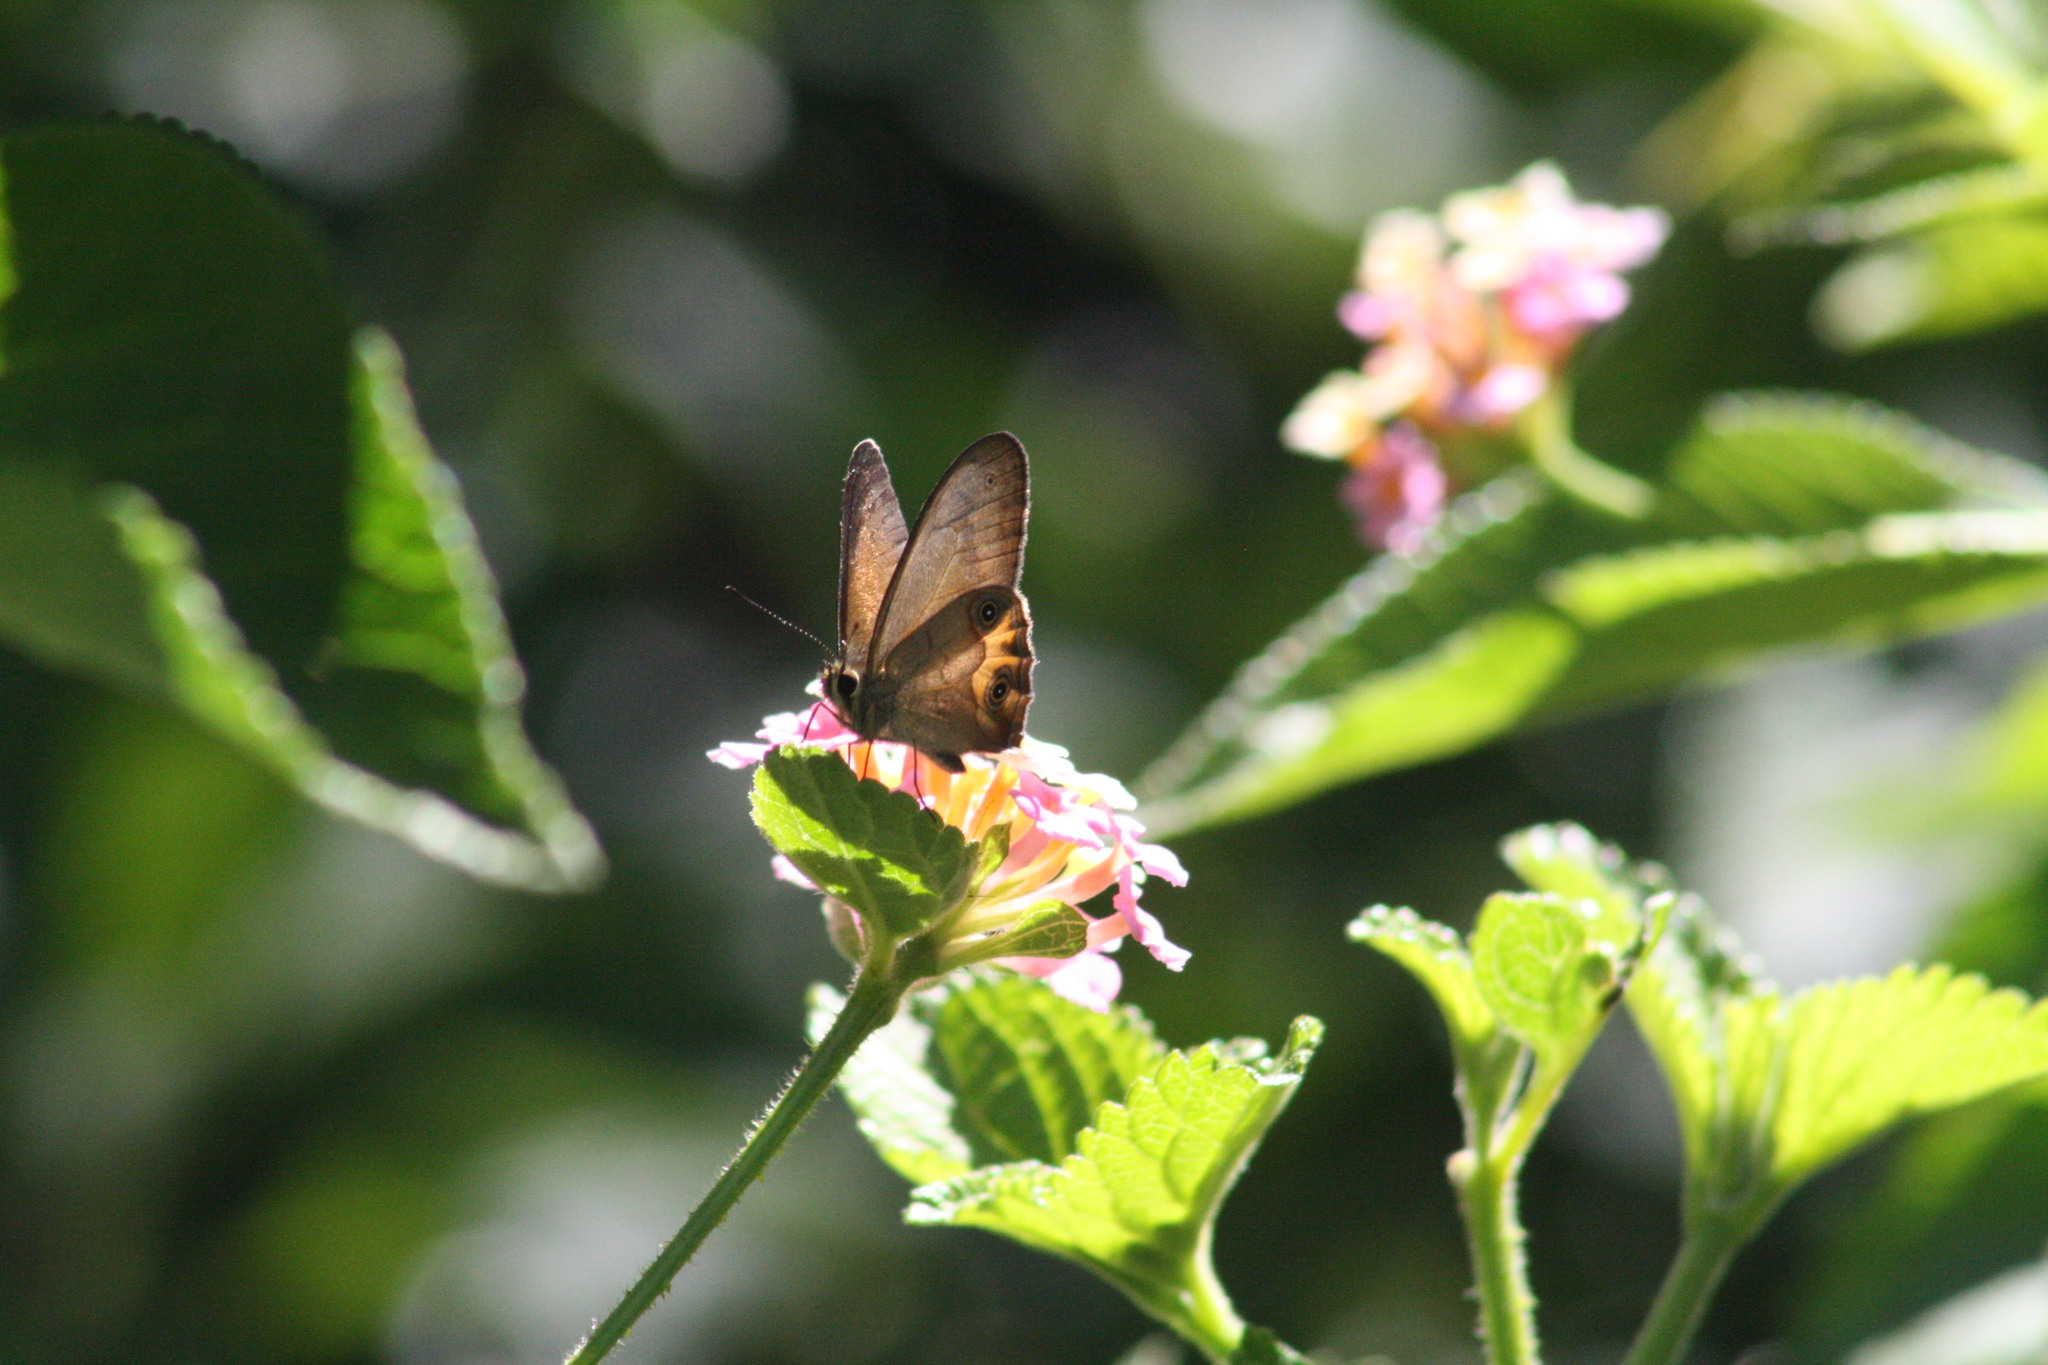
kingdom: Animalia
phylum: Arthropoda
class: Insecta
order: Lepidoptera
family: Nymphalidae
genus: Hypocysta
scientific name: Hypocysta metirius
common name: Brown ringlet
